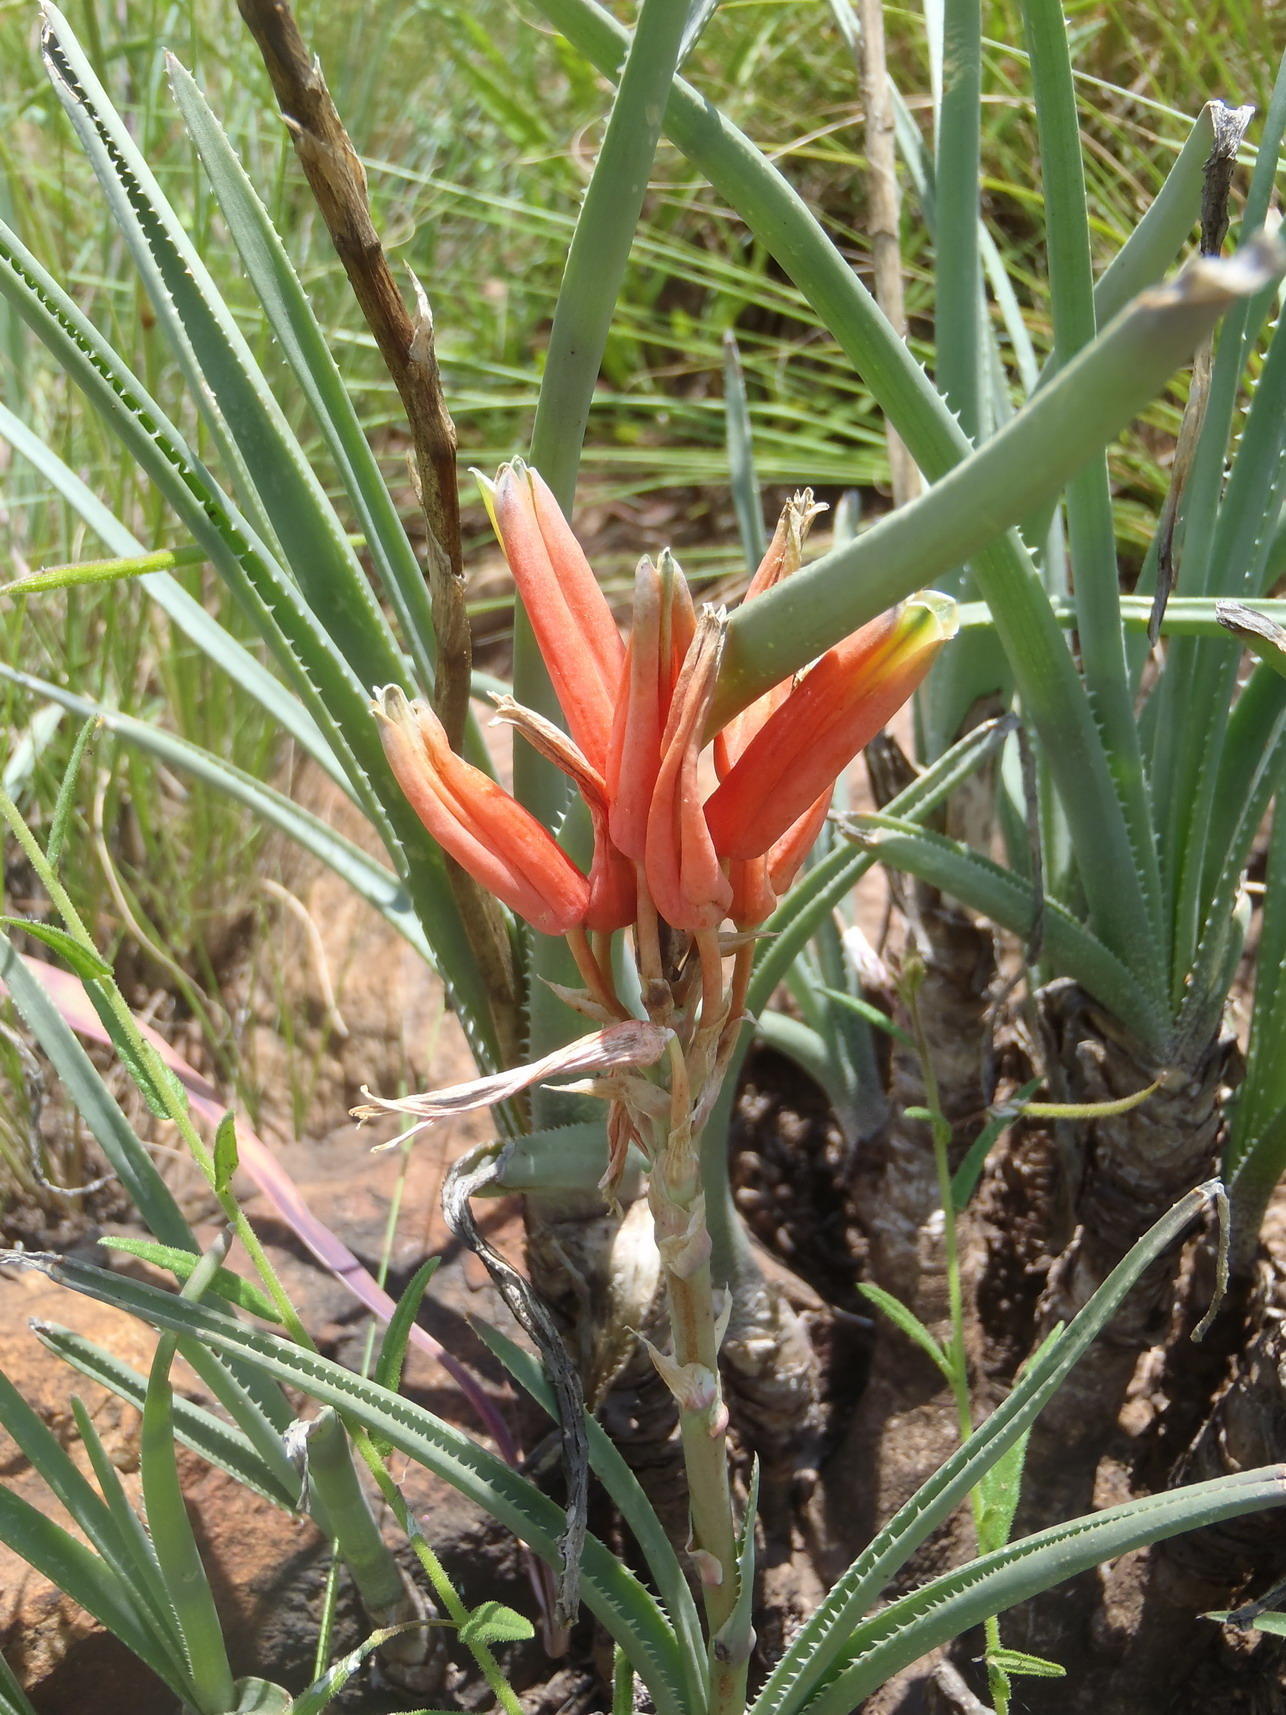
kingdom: Plantae
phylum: Tracheophyta
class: Liliopsida
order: Asparagales
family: Asphodelaceae
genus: Aloe
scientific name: Aloe verecunda
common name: Grass aloe
